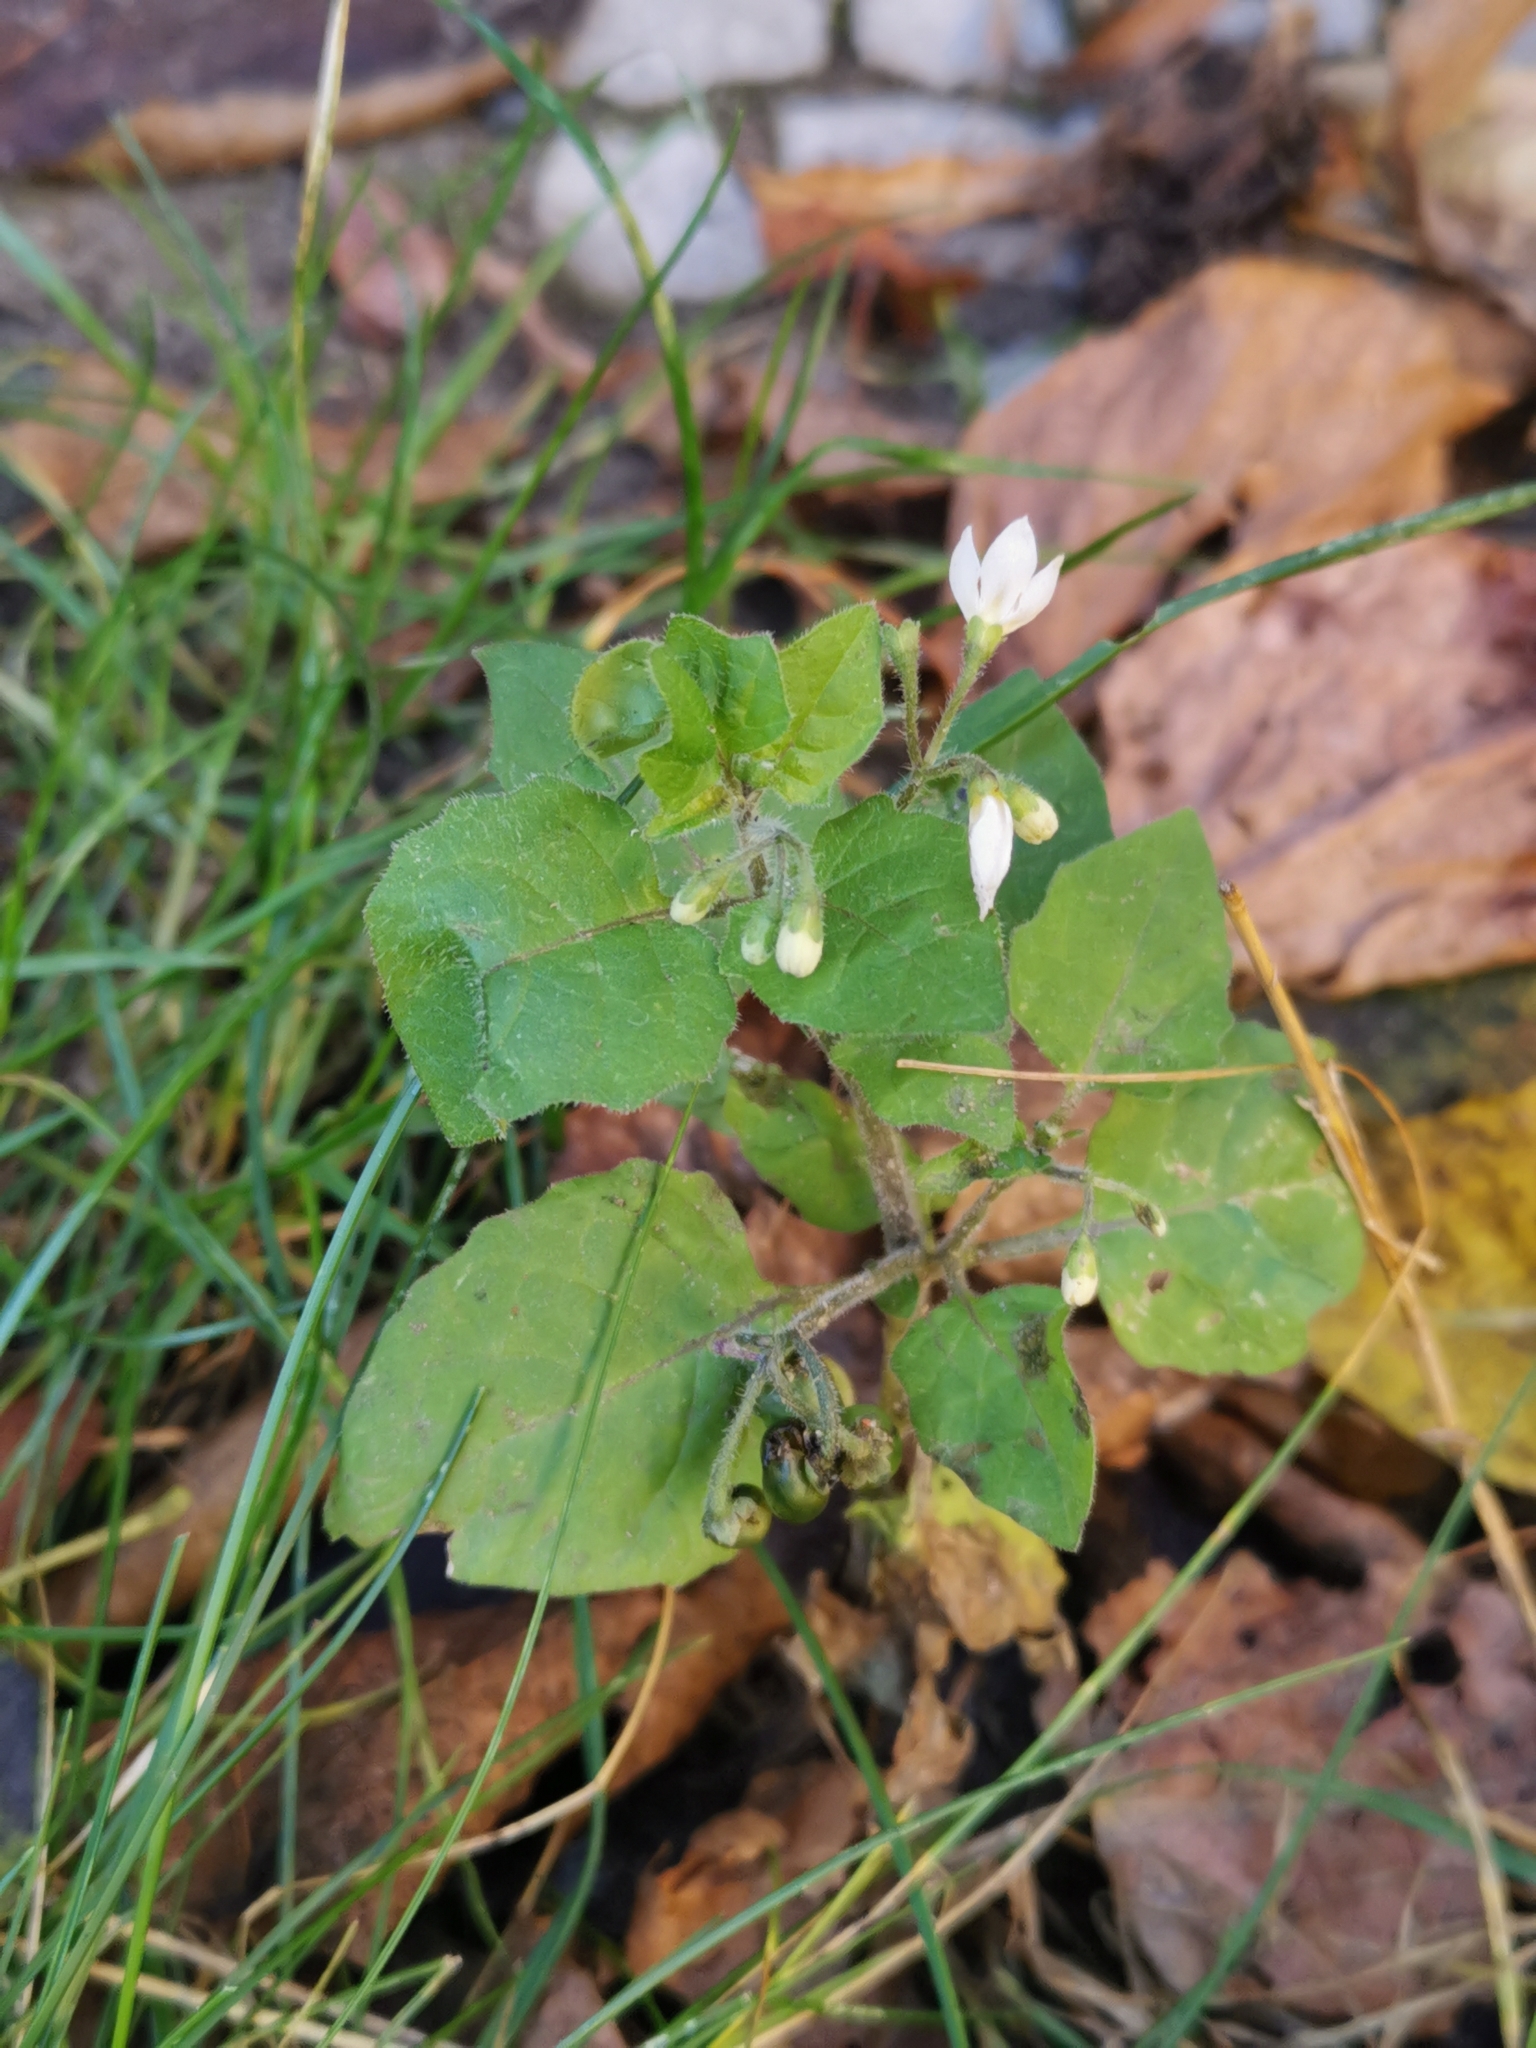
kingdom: Plantae
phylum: Tracheophyta
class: Magnoliopsida
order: Solanales
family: Solanaceae
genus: Solanum
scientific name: Solanum nigrum
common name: Black nightshade
